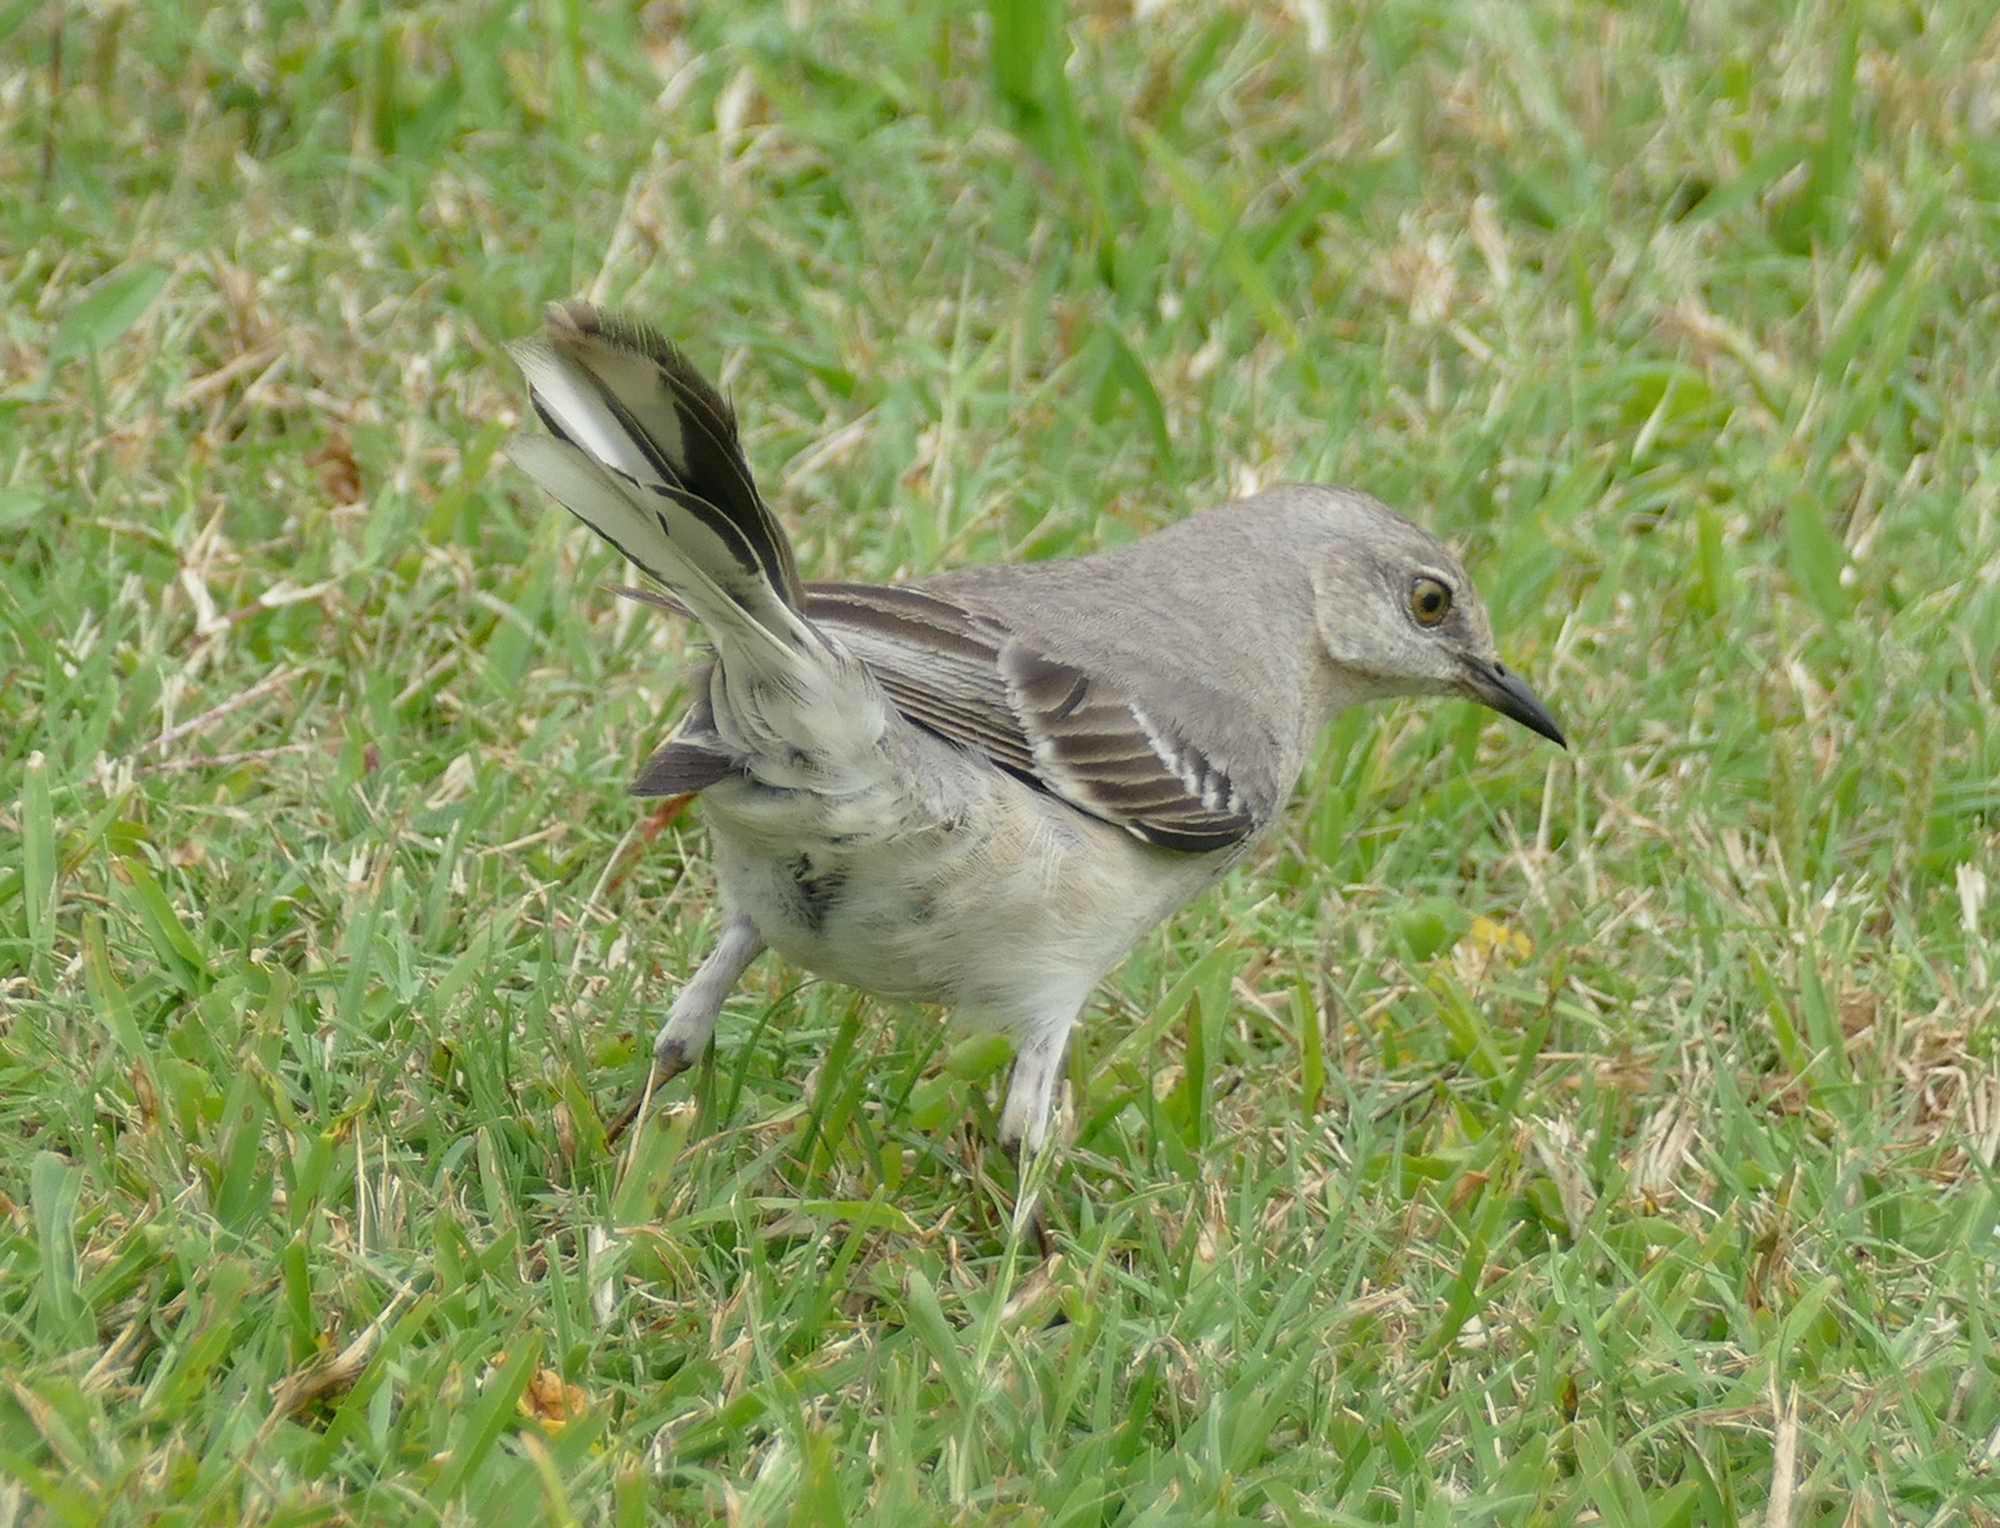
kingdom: Animalia
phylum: Chordata
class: Aves
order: Passeriformes
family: Mimidae
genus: Mimus
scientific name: Mimus polyglottos
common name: Northern mockingbird
